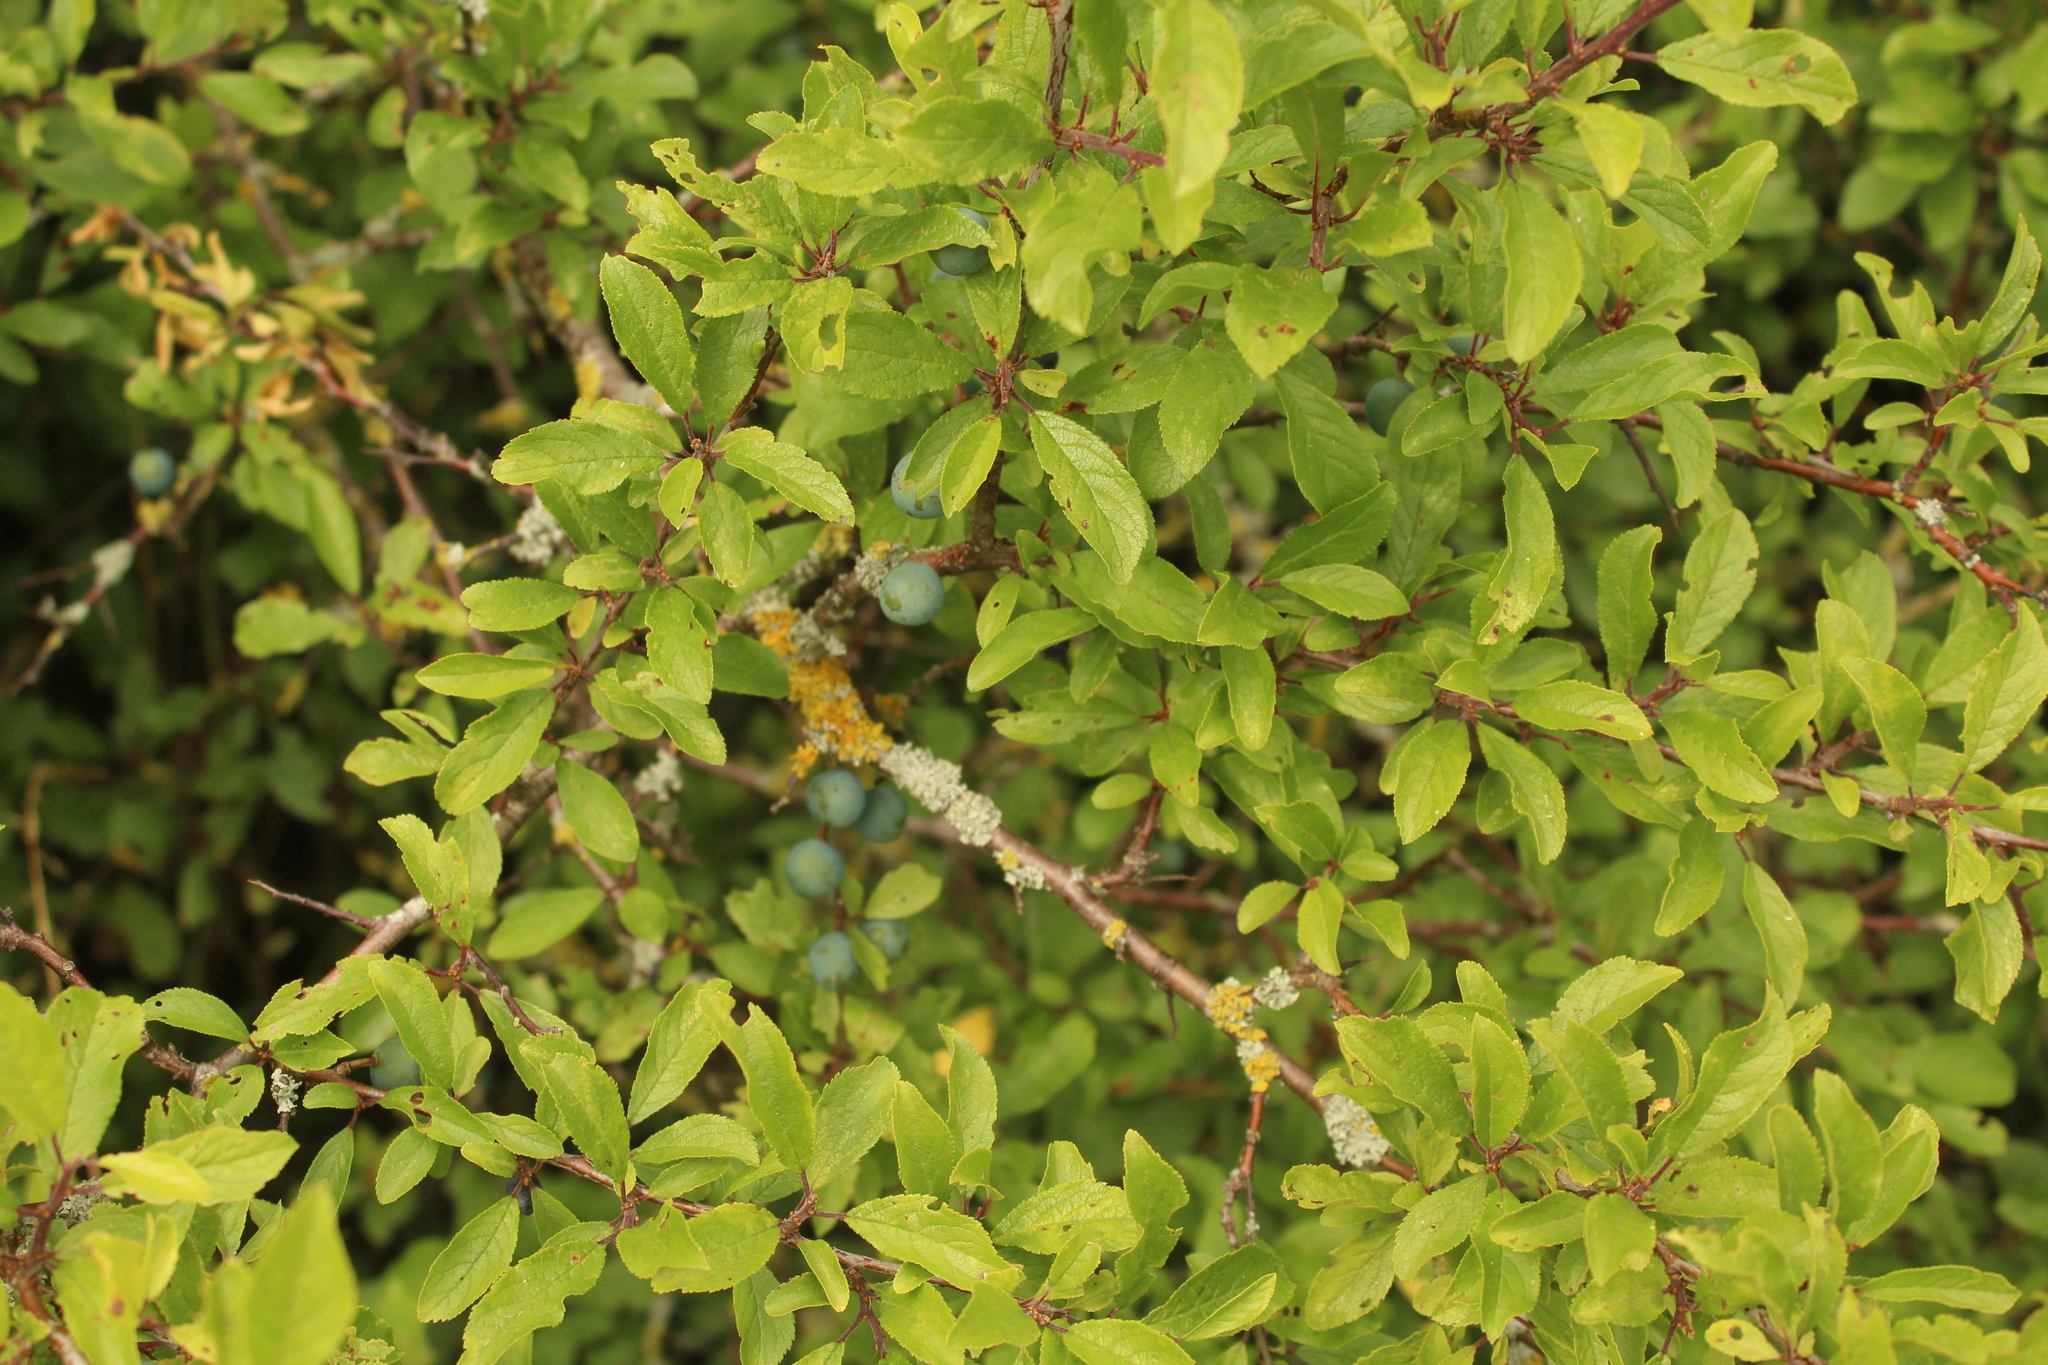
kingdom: Plantae
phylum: Tracheophyta
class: Magnoliopsida
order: Rosales
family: Rosaceae
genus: Prunus
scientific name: Prunus spinosa
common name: Blackthorn
